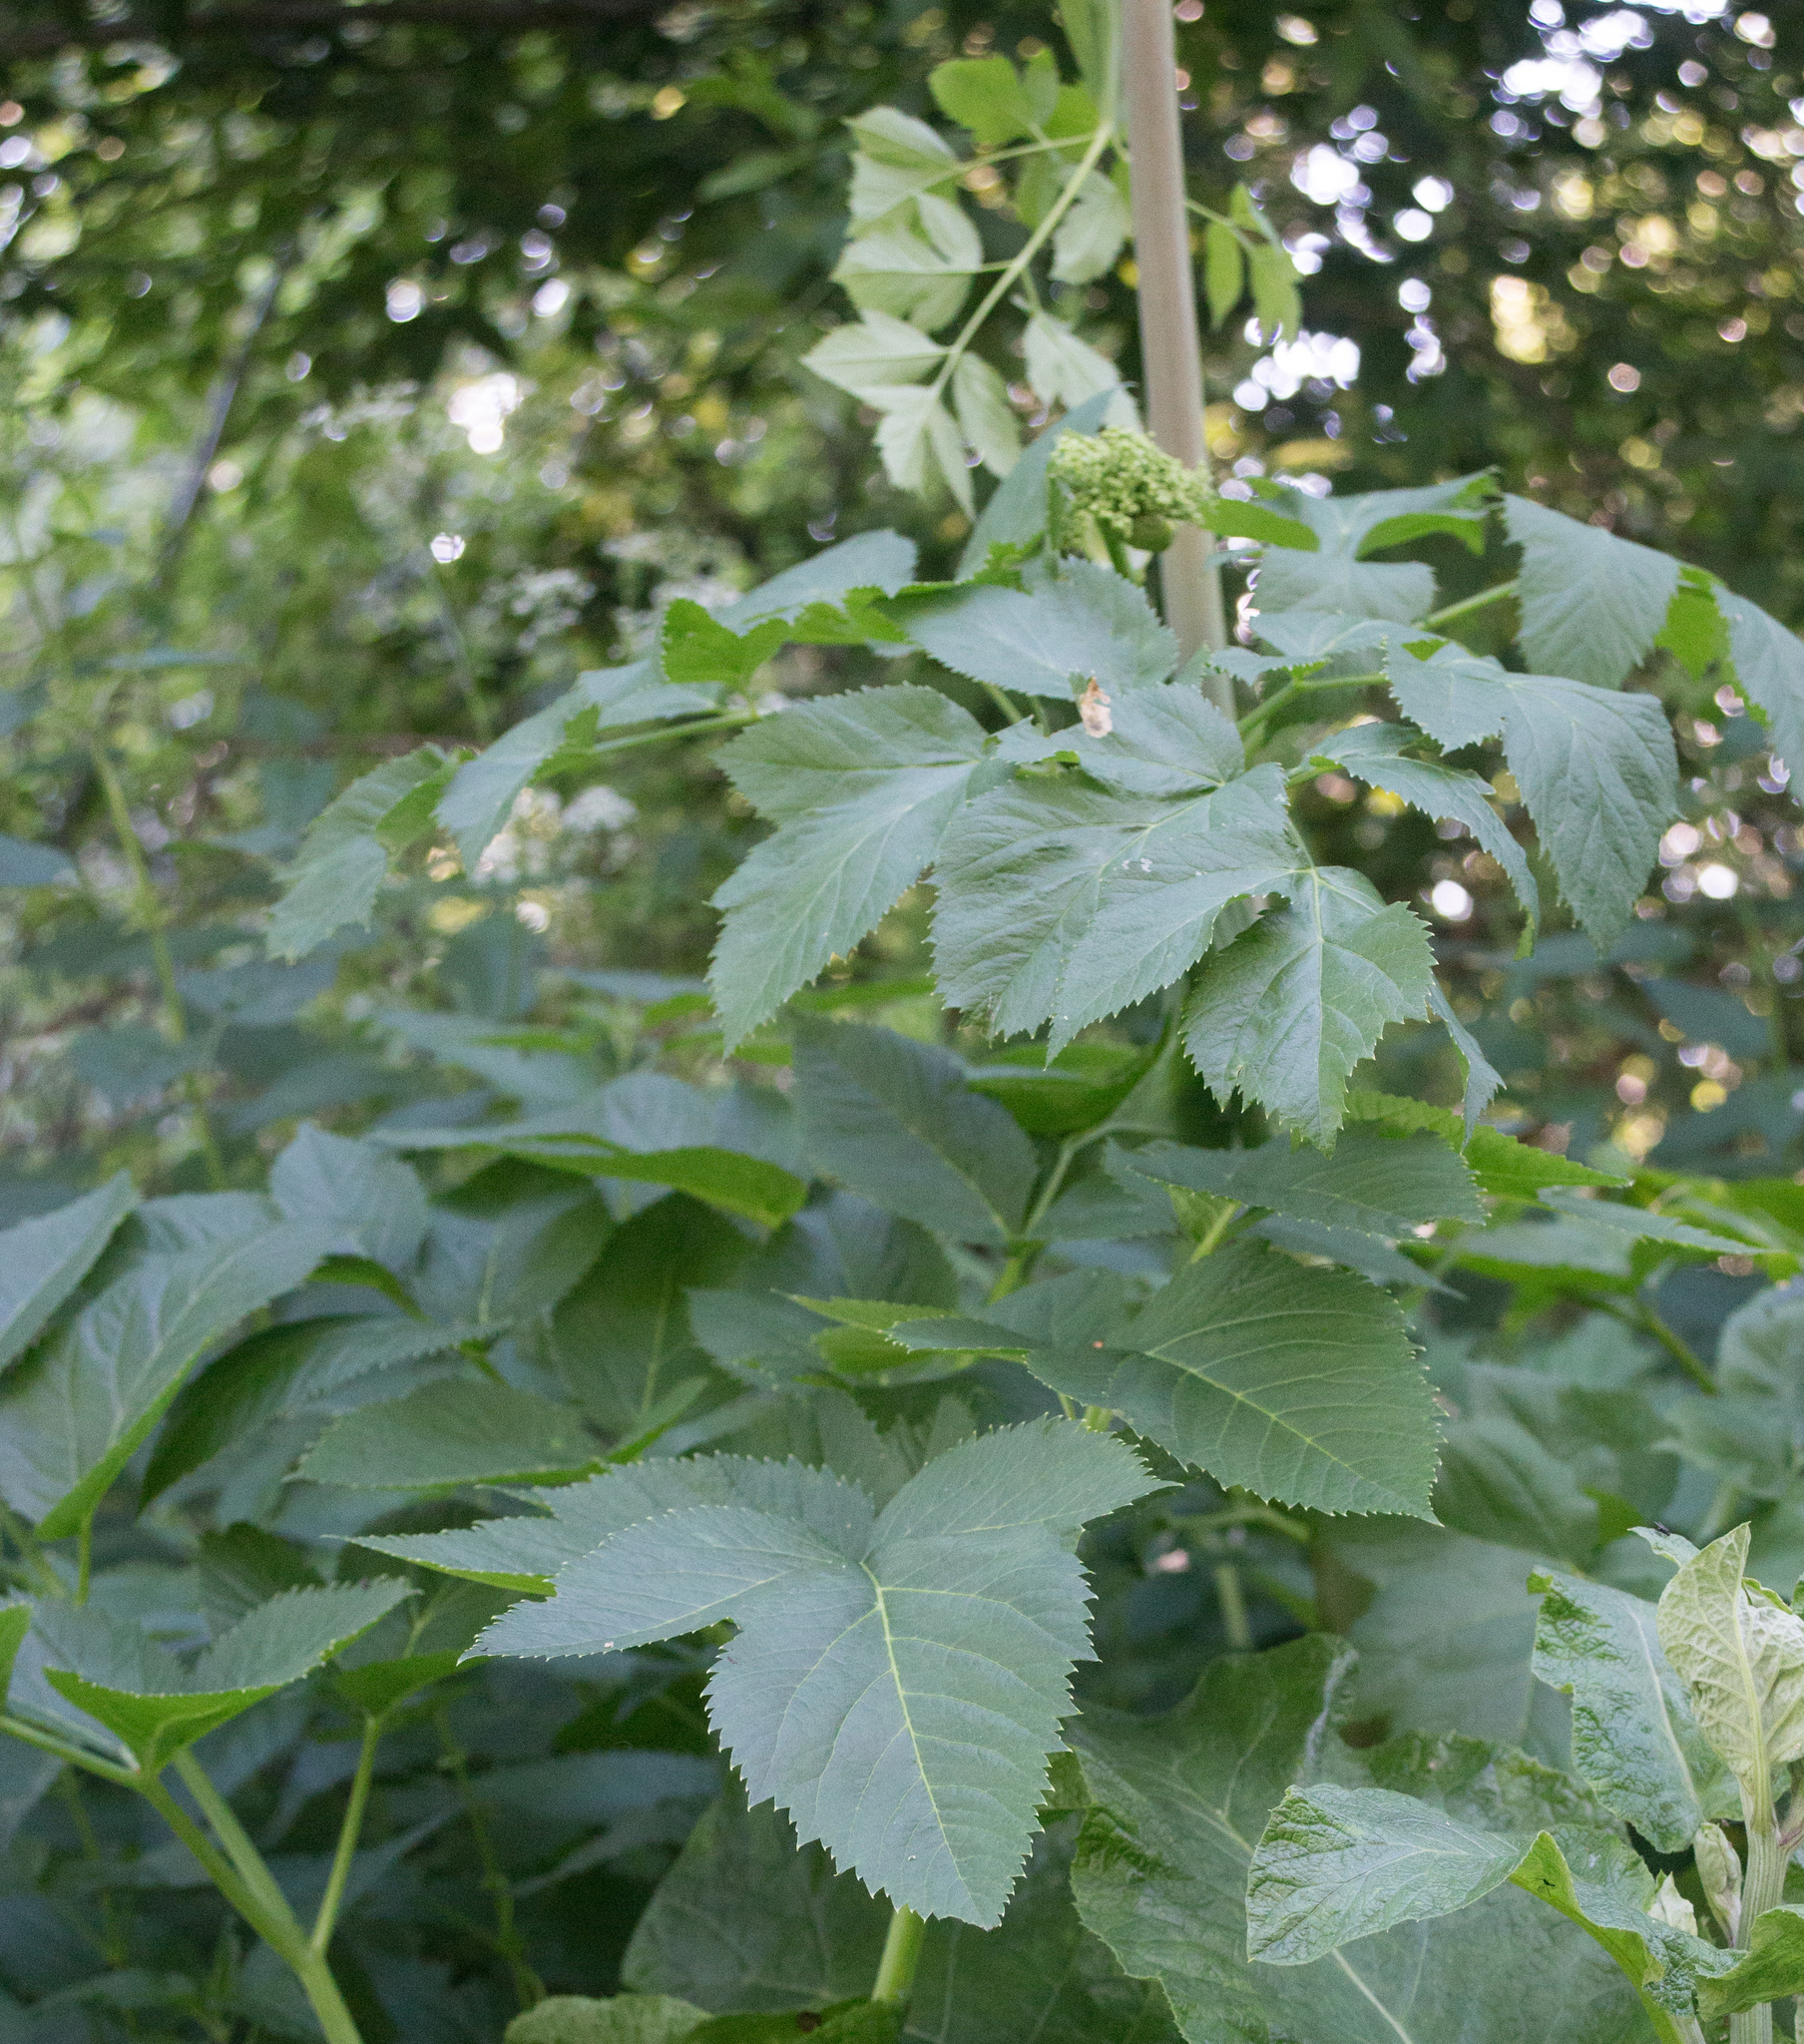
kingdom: Plantae
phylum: Tracheophyta
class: Magnoliopsida
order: Apiales
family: Apiaceae
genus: Angelica
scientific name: Angelica archangelica
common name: Garden angelica
